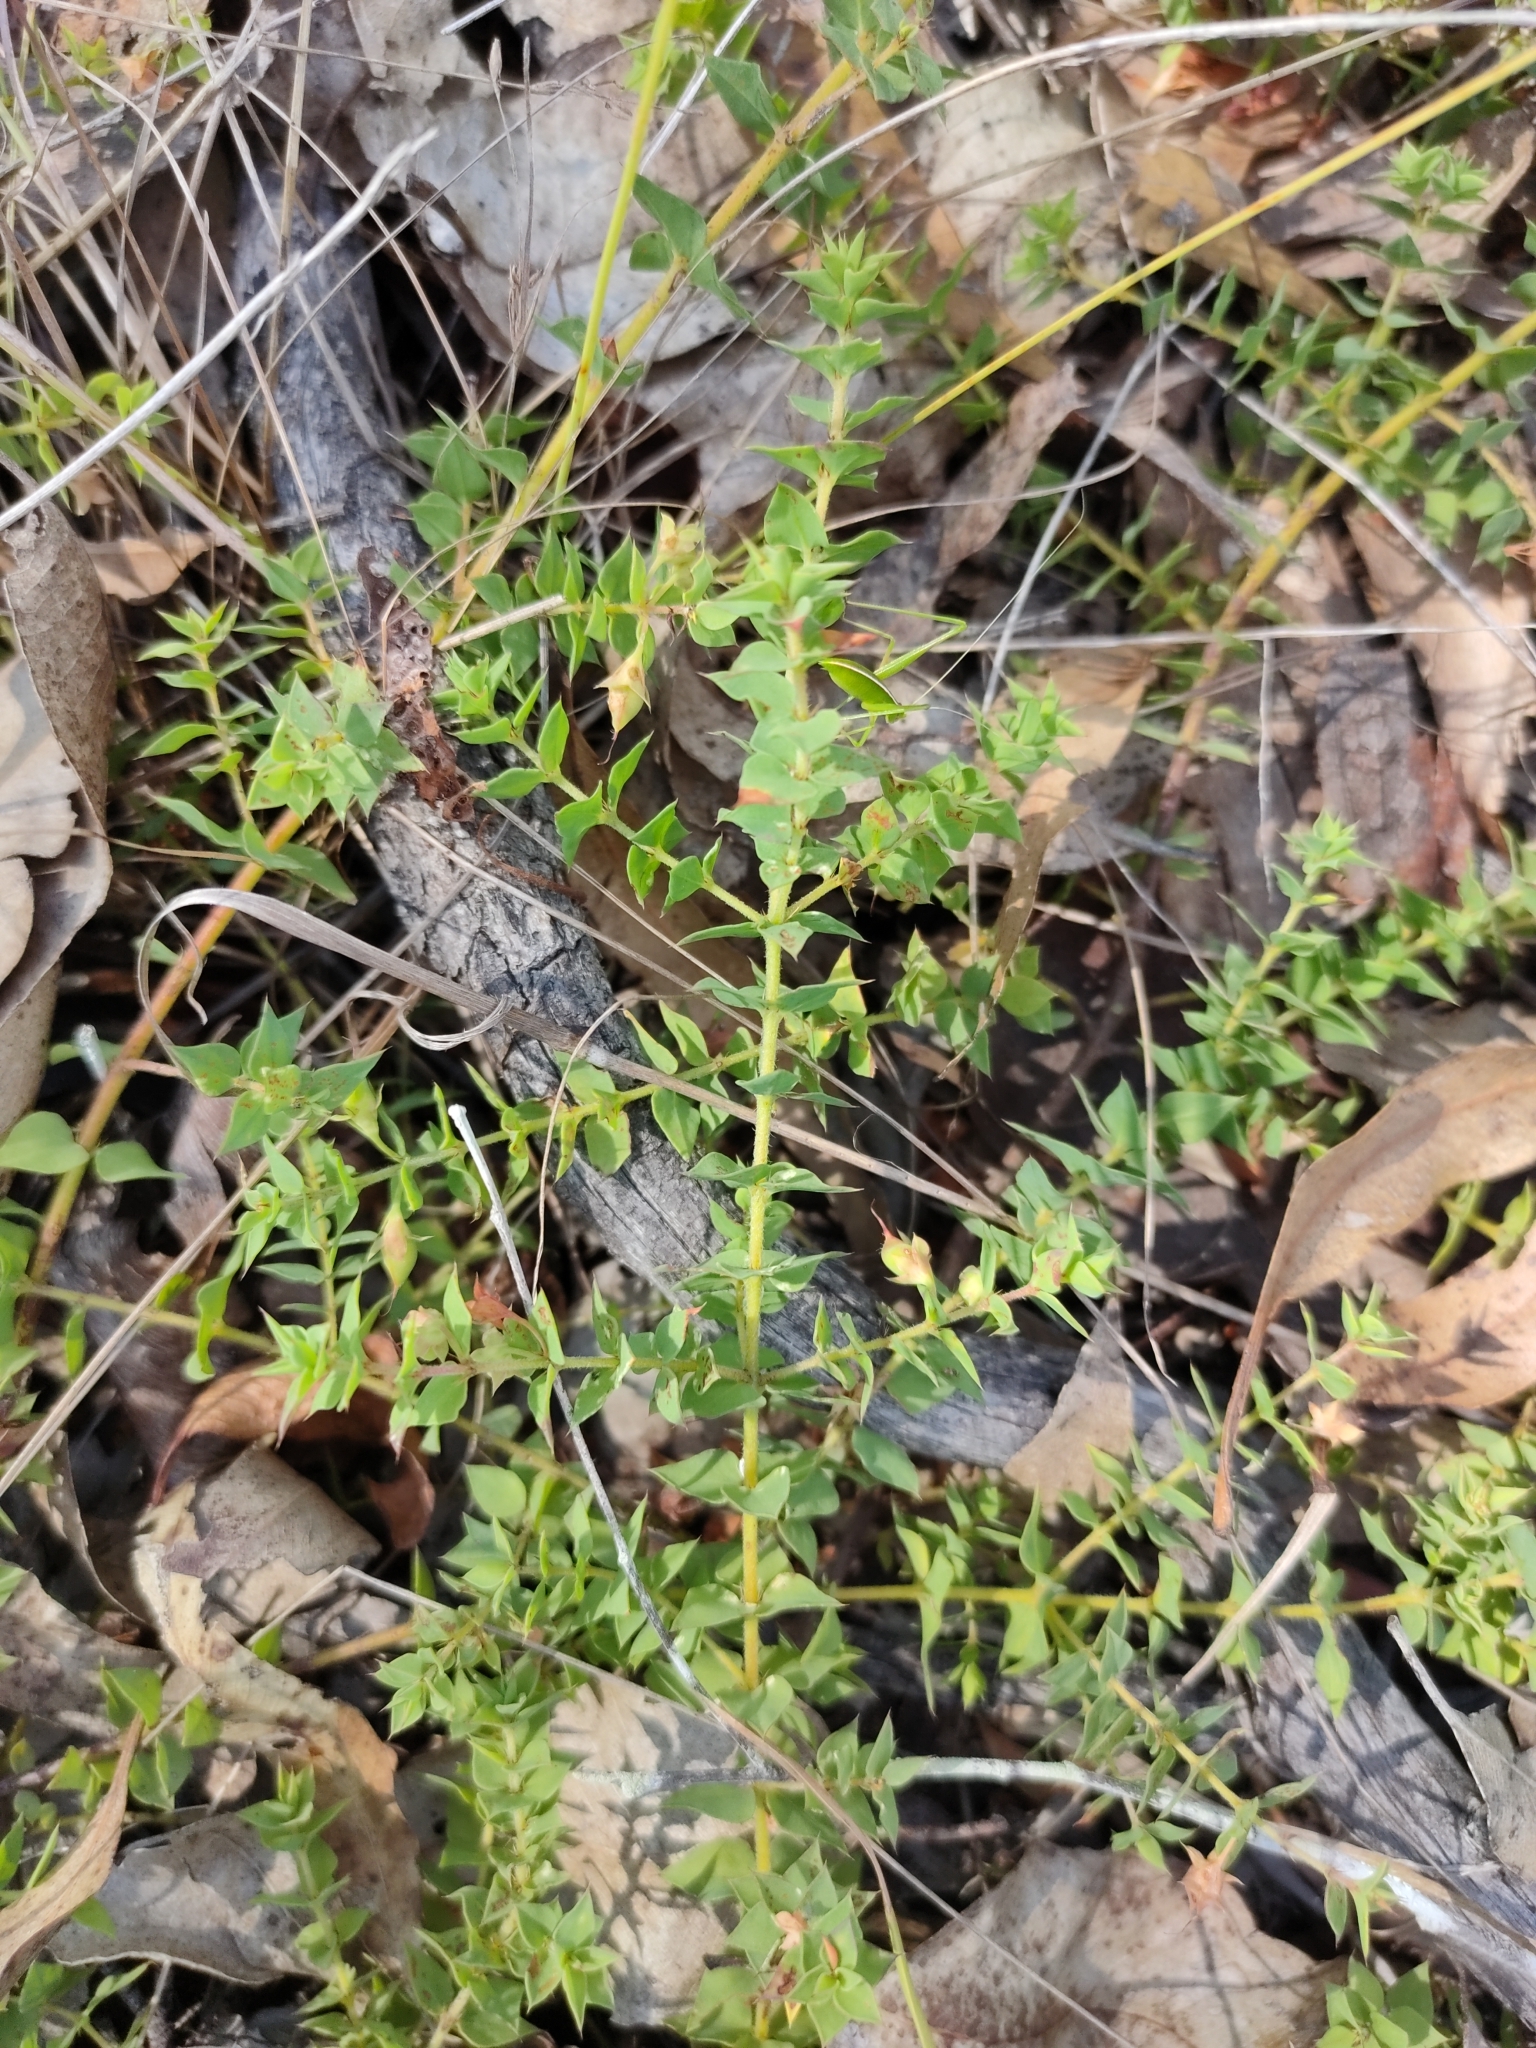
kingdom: Plantae
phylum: Tracheophyta
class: Magnoliopsida
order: Fabales
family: Fabaceae
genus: Pultenaea
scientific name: Pultenaea spinosa
